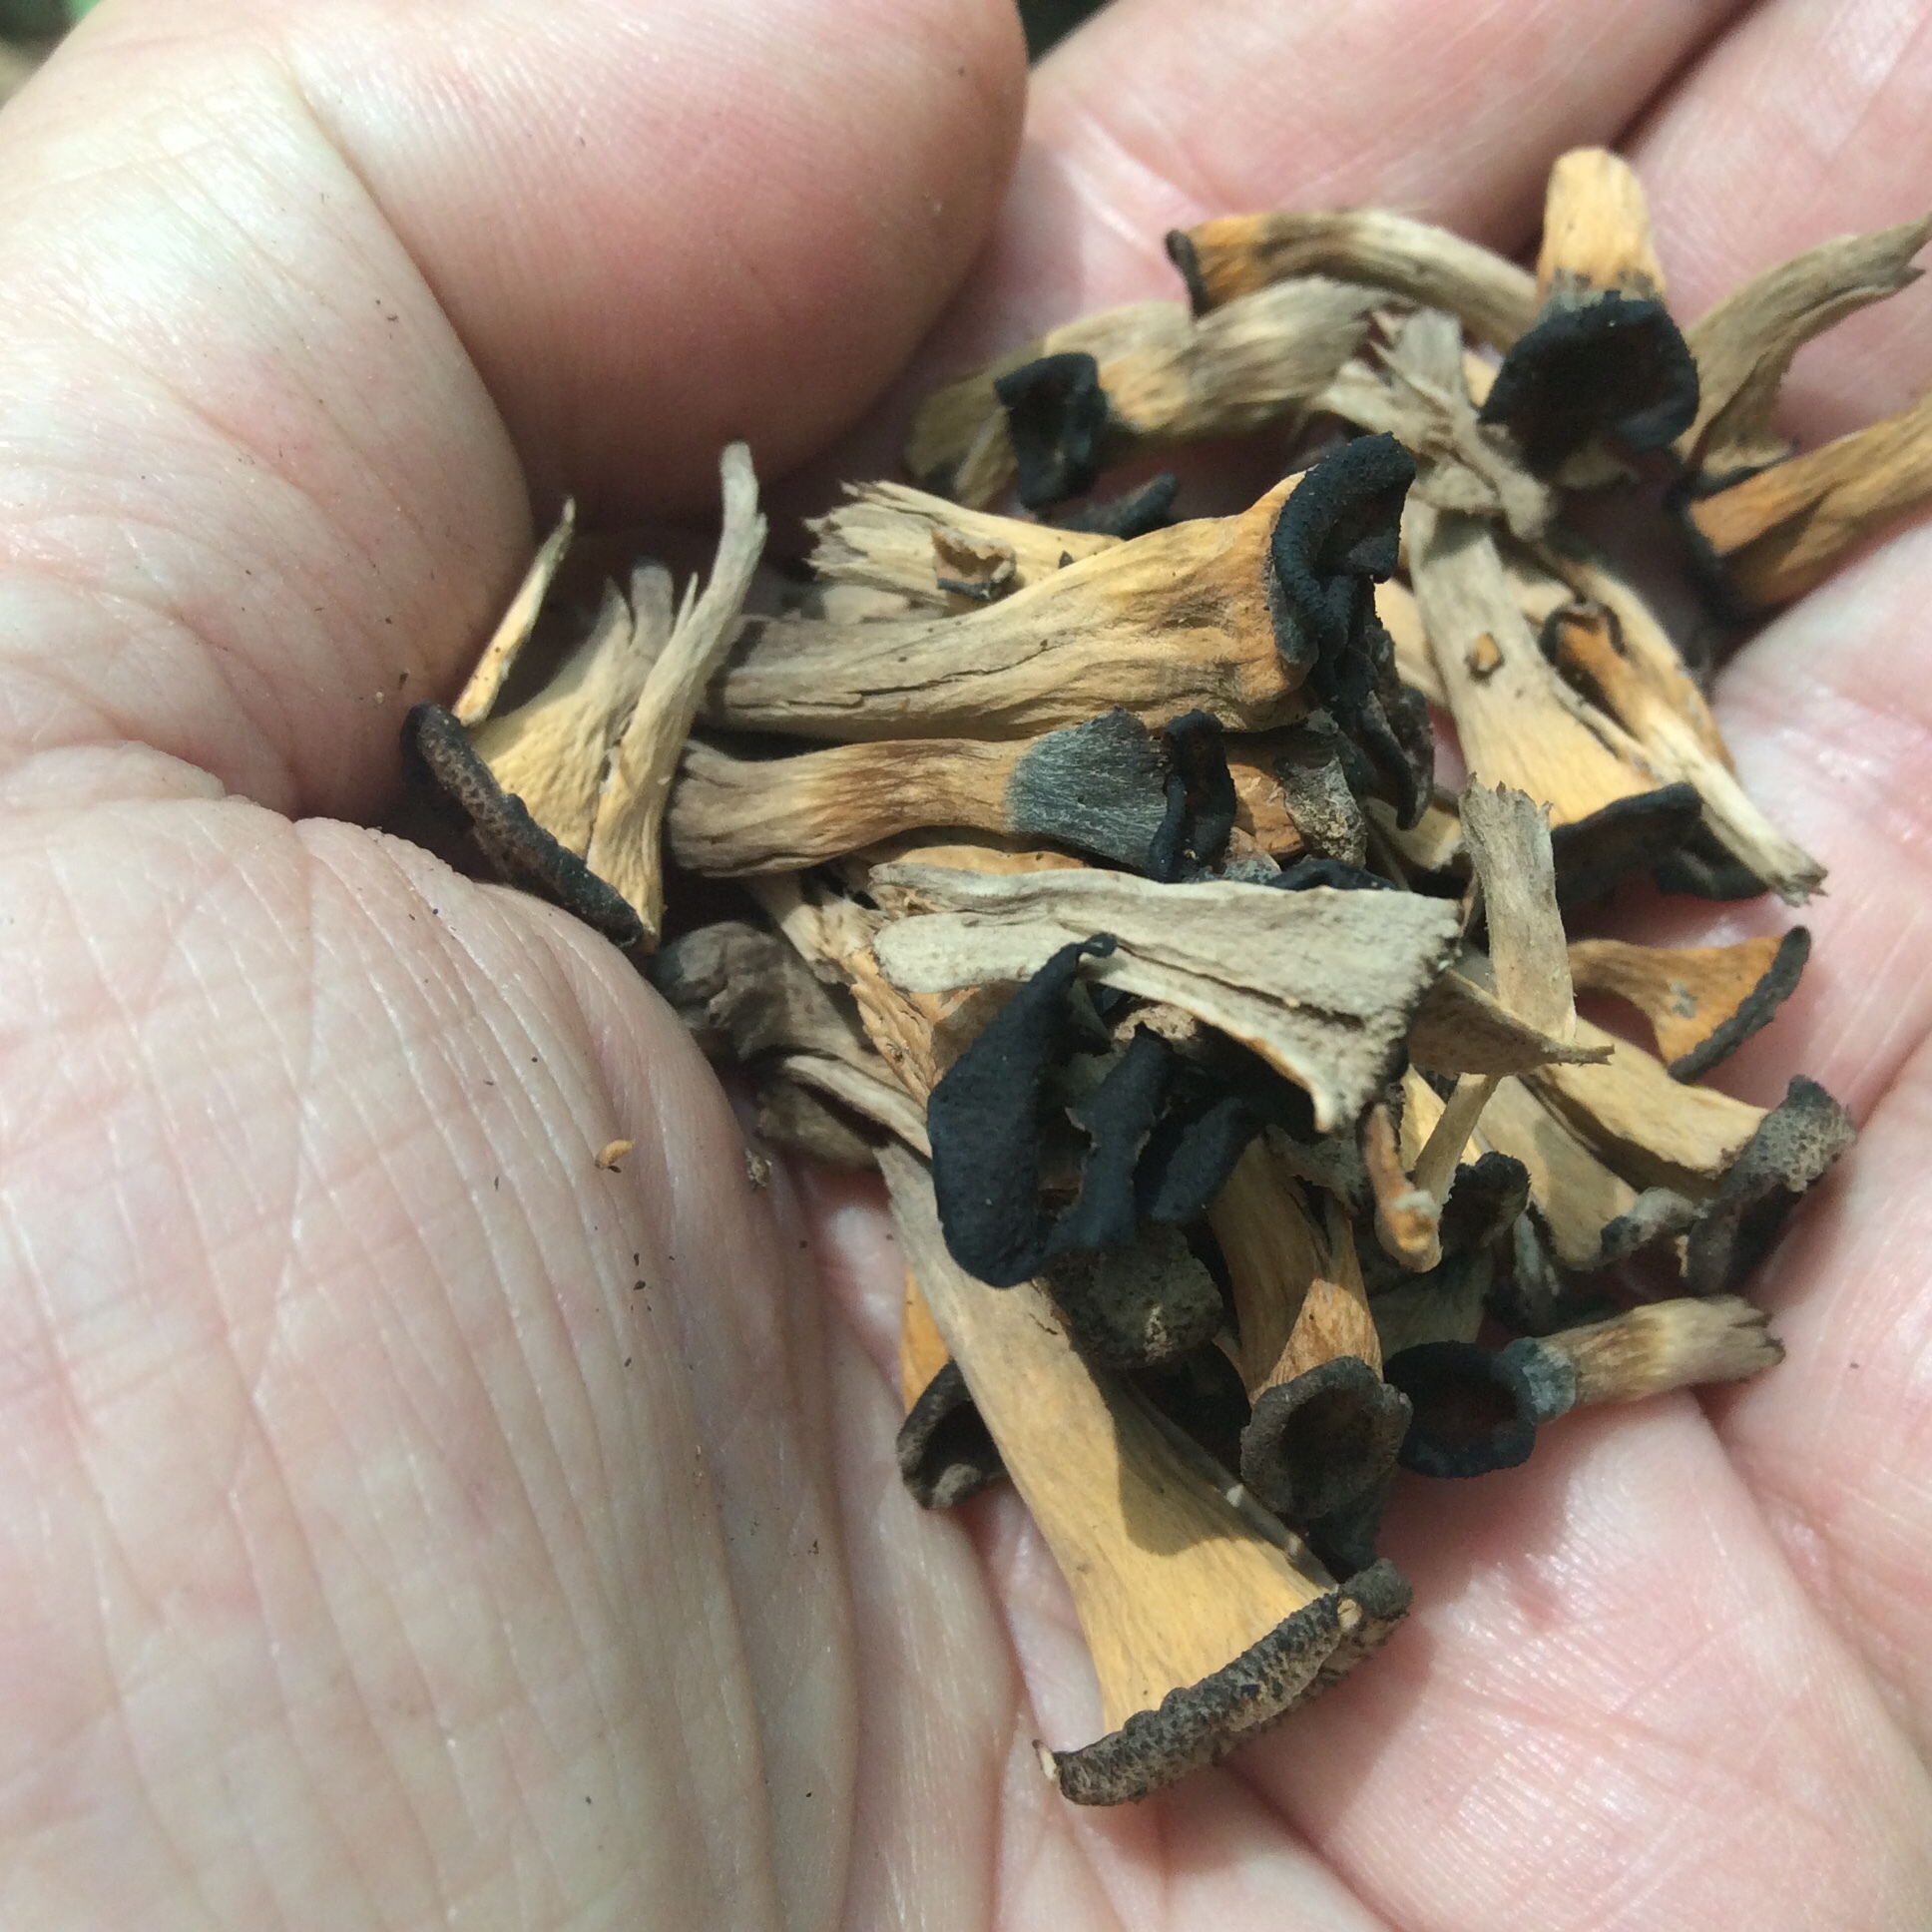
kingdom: Fungi
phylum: Basidiomycota
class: Agaricomycetes
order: Cantharellales
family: Hydnaceae
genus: Craterellus
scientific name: Craterellus cornucopioides
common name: Horn of plenty
